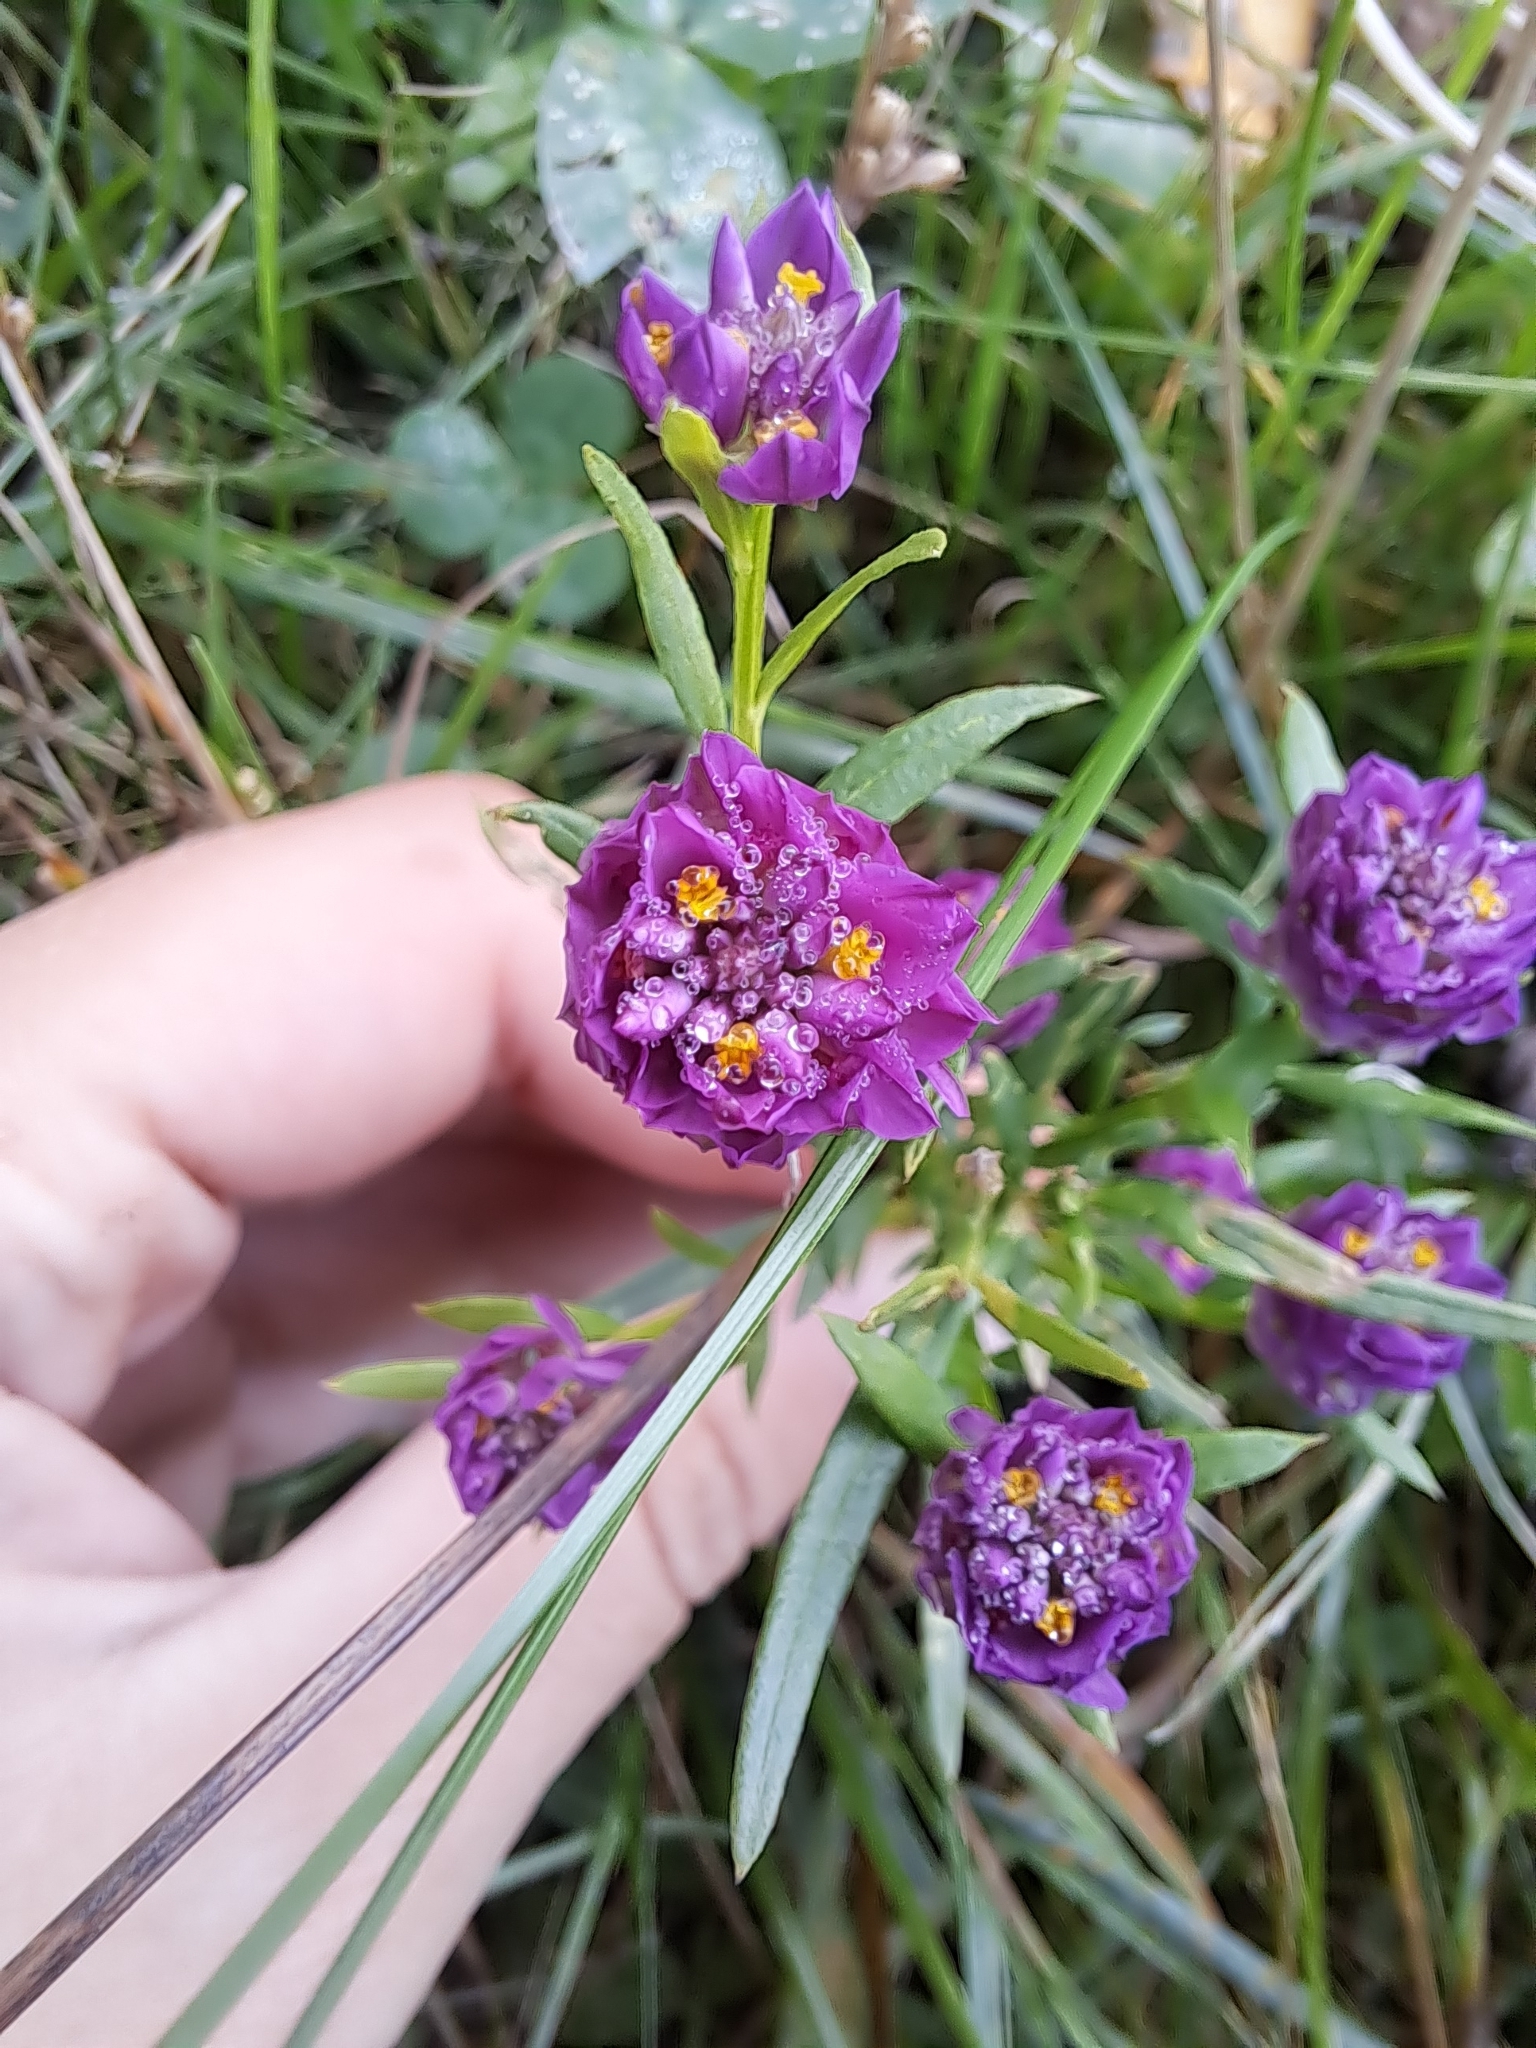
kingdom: Plantae
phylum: Tracheophyta
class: Magnoliopsida
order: Fabales
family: Polygalaceae
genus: Polygala
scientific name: Polygala sanguinea
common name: Blood milkwort
